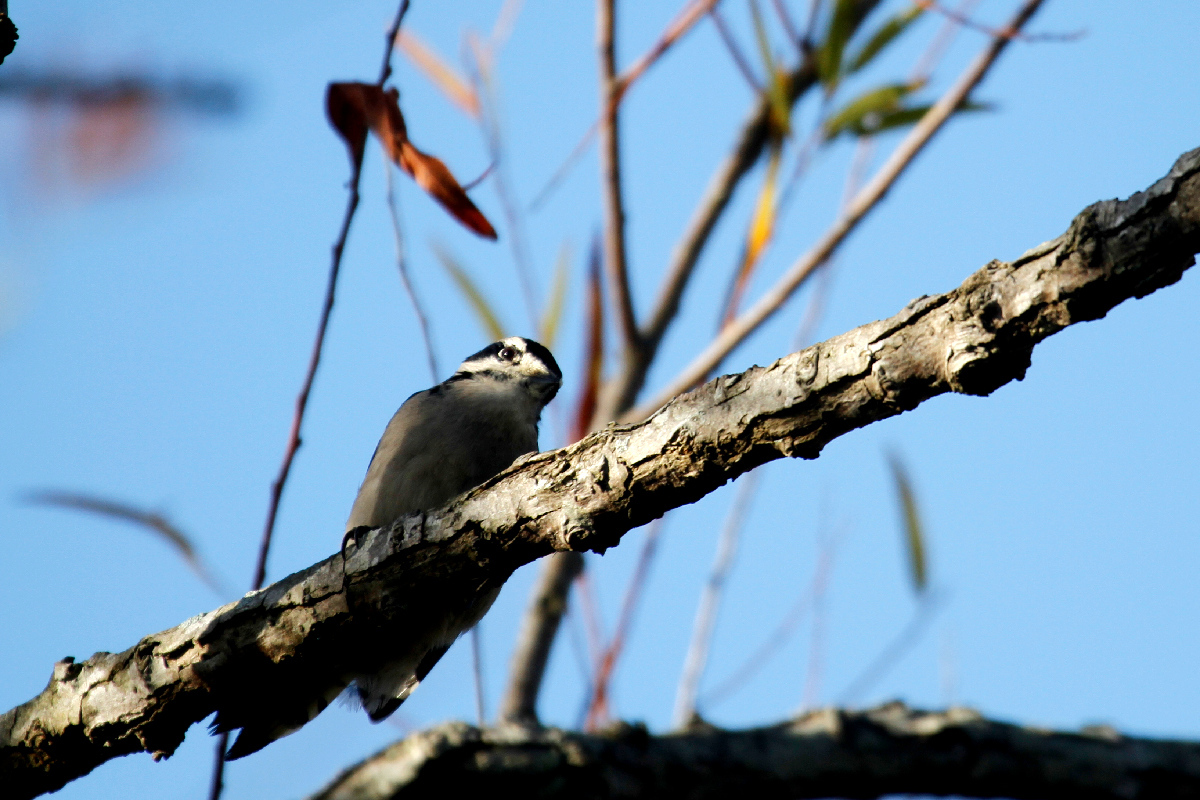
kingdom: Animalia
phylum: Chordata
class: Aves
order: Piciformes
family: Picidae
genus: Dryobates
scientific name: Dryobates pubescens
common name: Downy woodpecker
